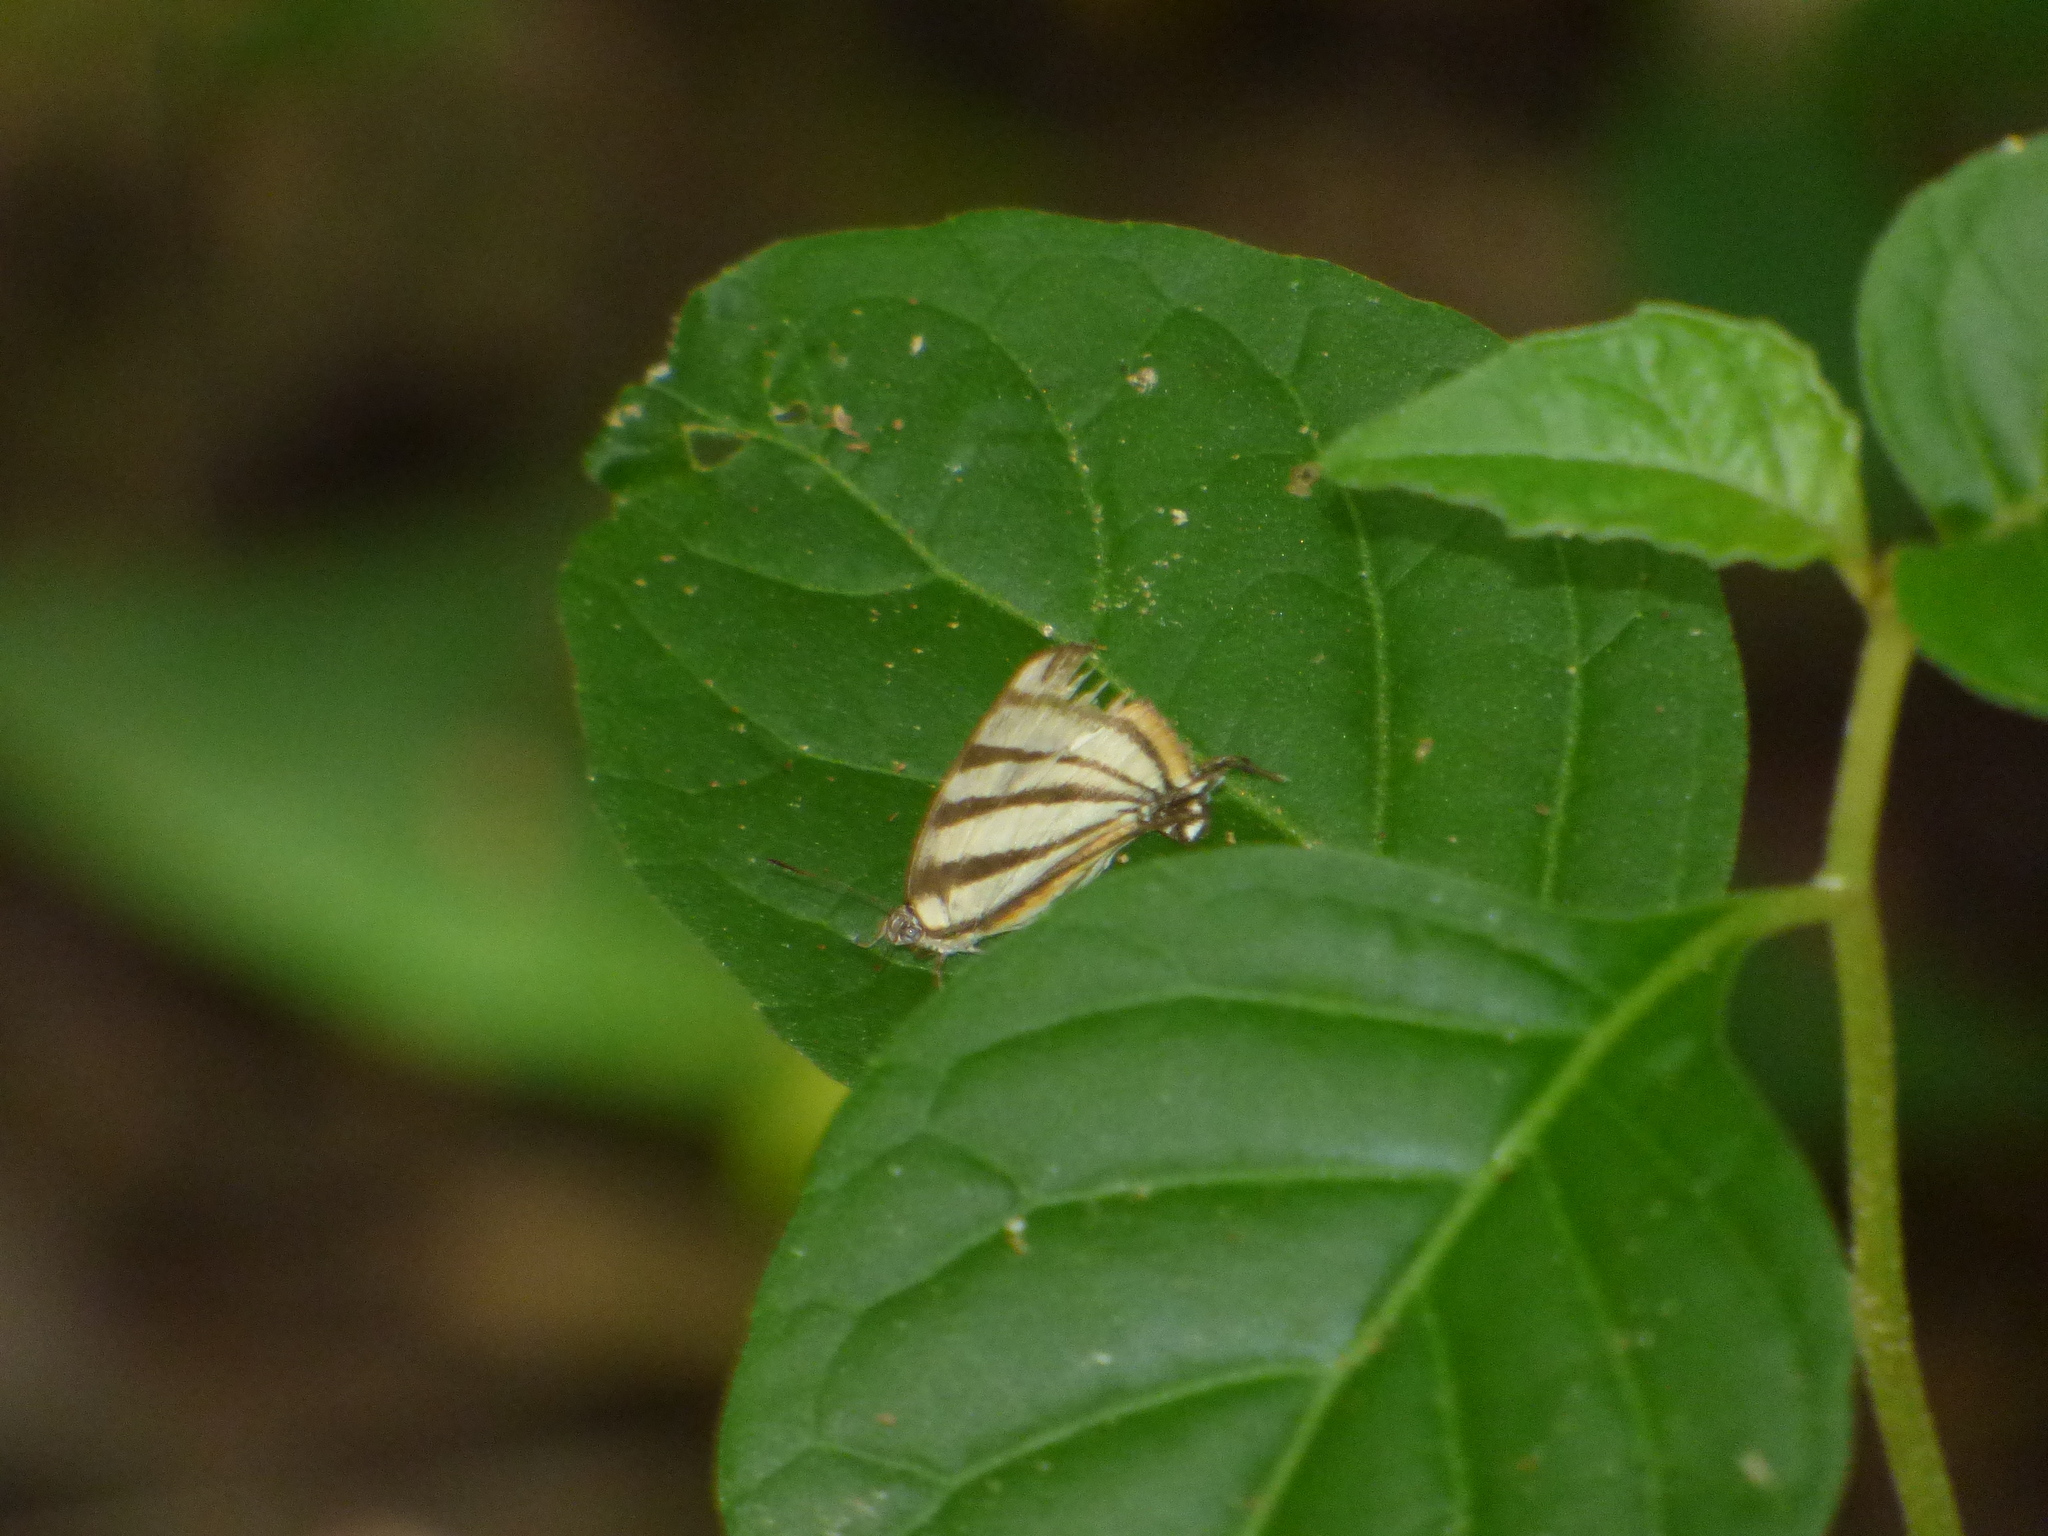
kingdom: Animalia
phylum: Arthropoda
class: Insecta
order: Lepidoptera
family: Lycaenidae
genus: Arawacus
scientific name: Arawacus separata
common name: Separated stripestreak
